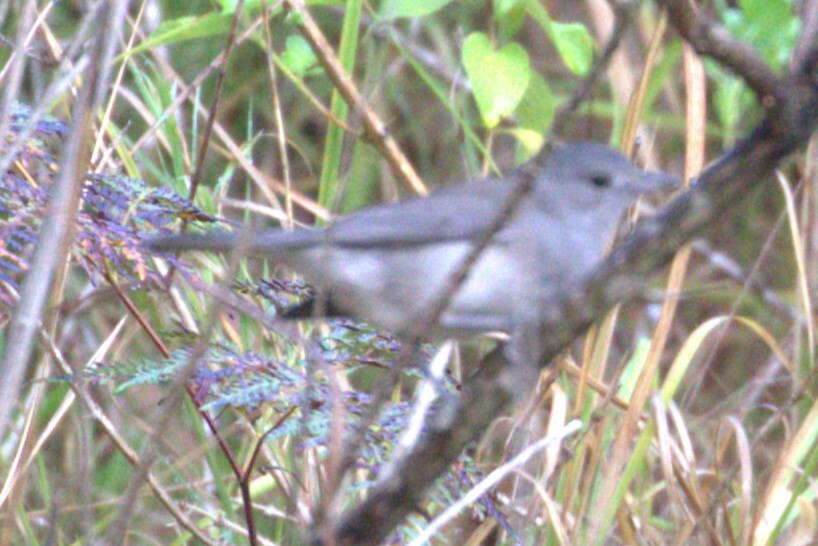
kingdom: Animalia
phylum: Chordata
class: Aves
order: Passeriformes
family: Pachycephalidae
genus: Colluricincla
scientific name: Colluricincla harmonica
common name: Grey shrikethrush
